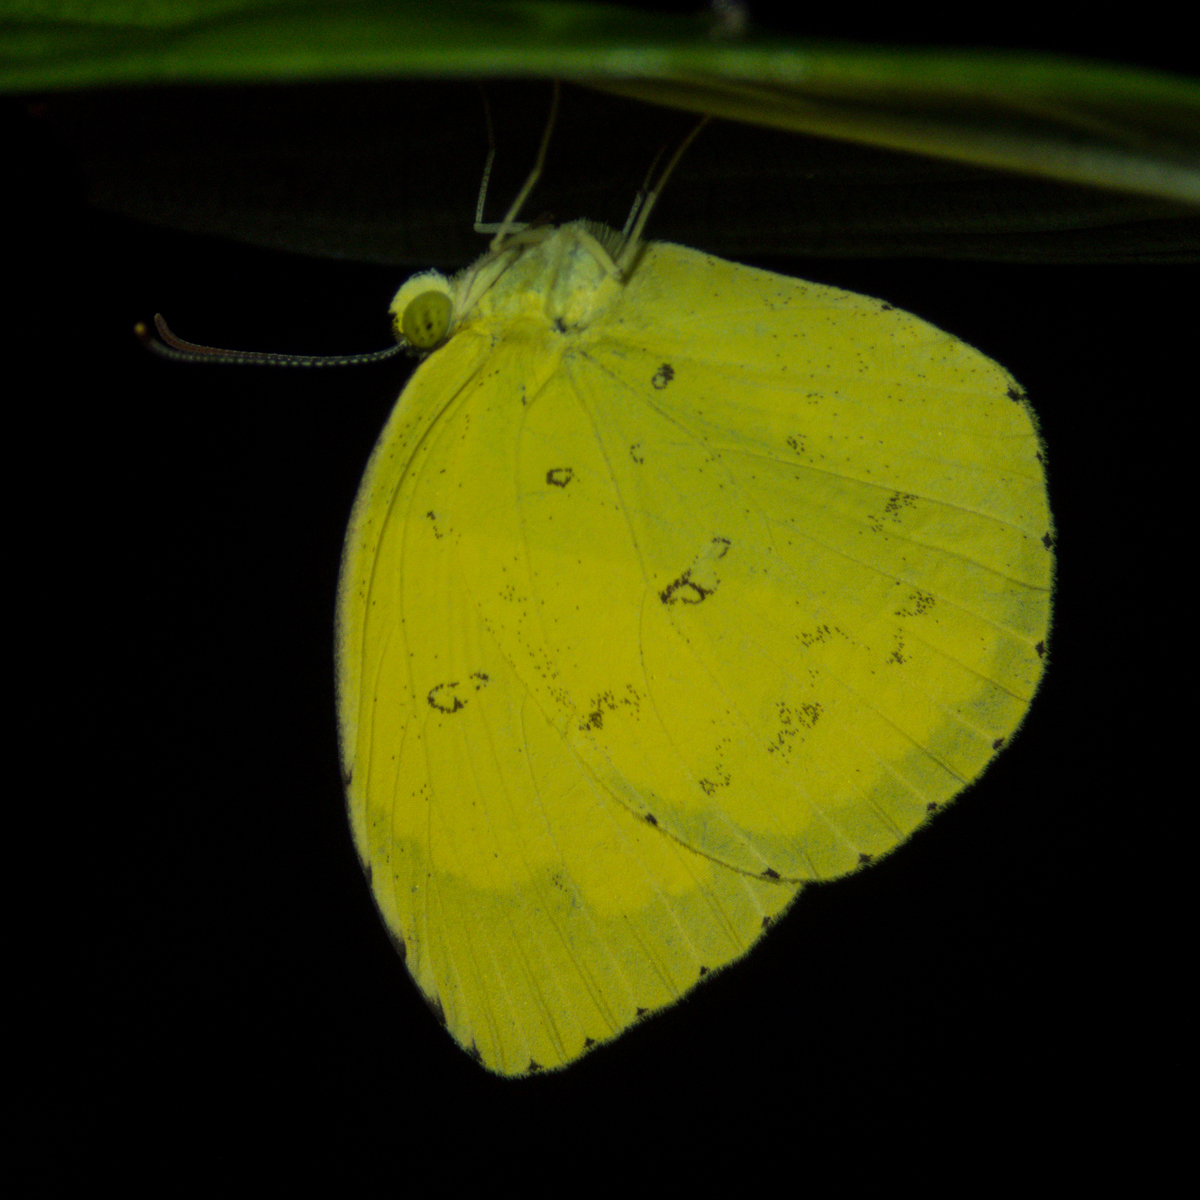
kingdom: Animalia
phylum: Arthropoda
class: Insecta
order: Lepidoptera
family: Pieridae
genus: Eurema
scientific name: Eurema hecabe
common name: Pale grass yellow
